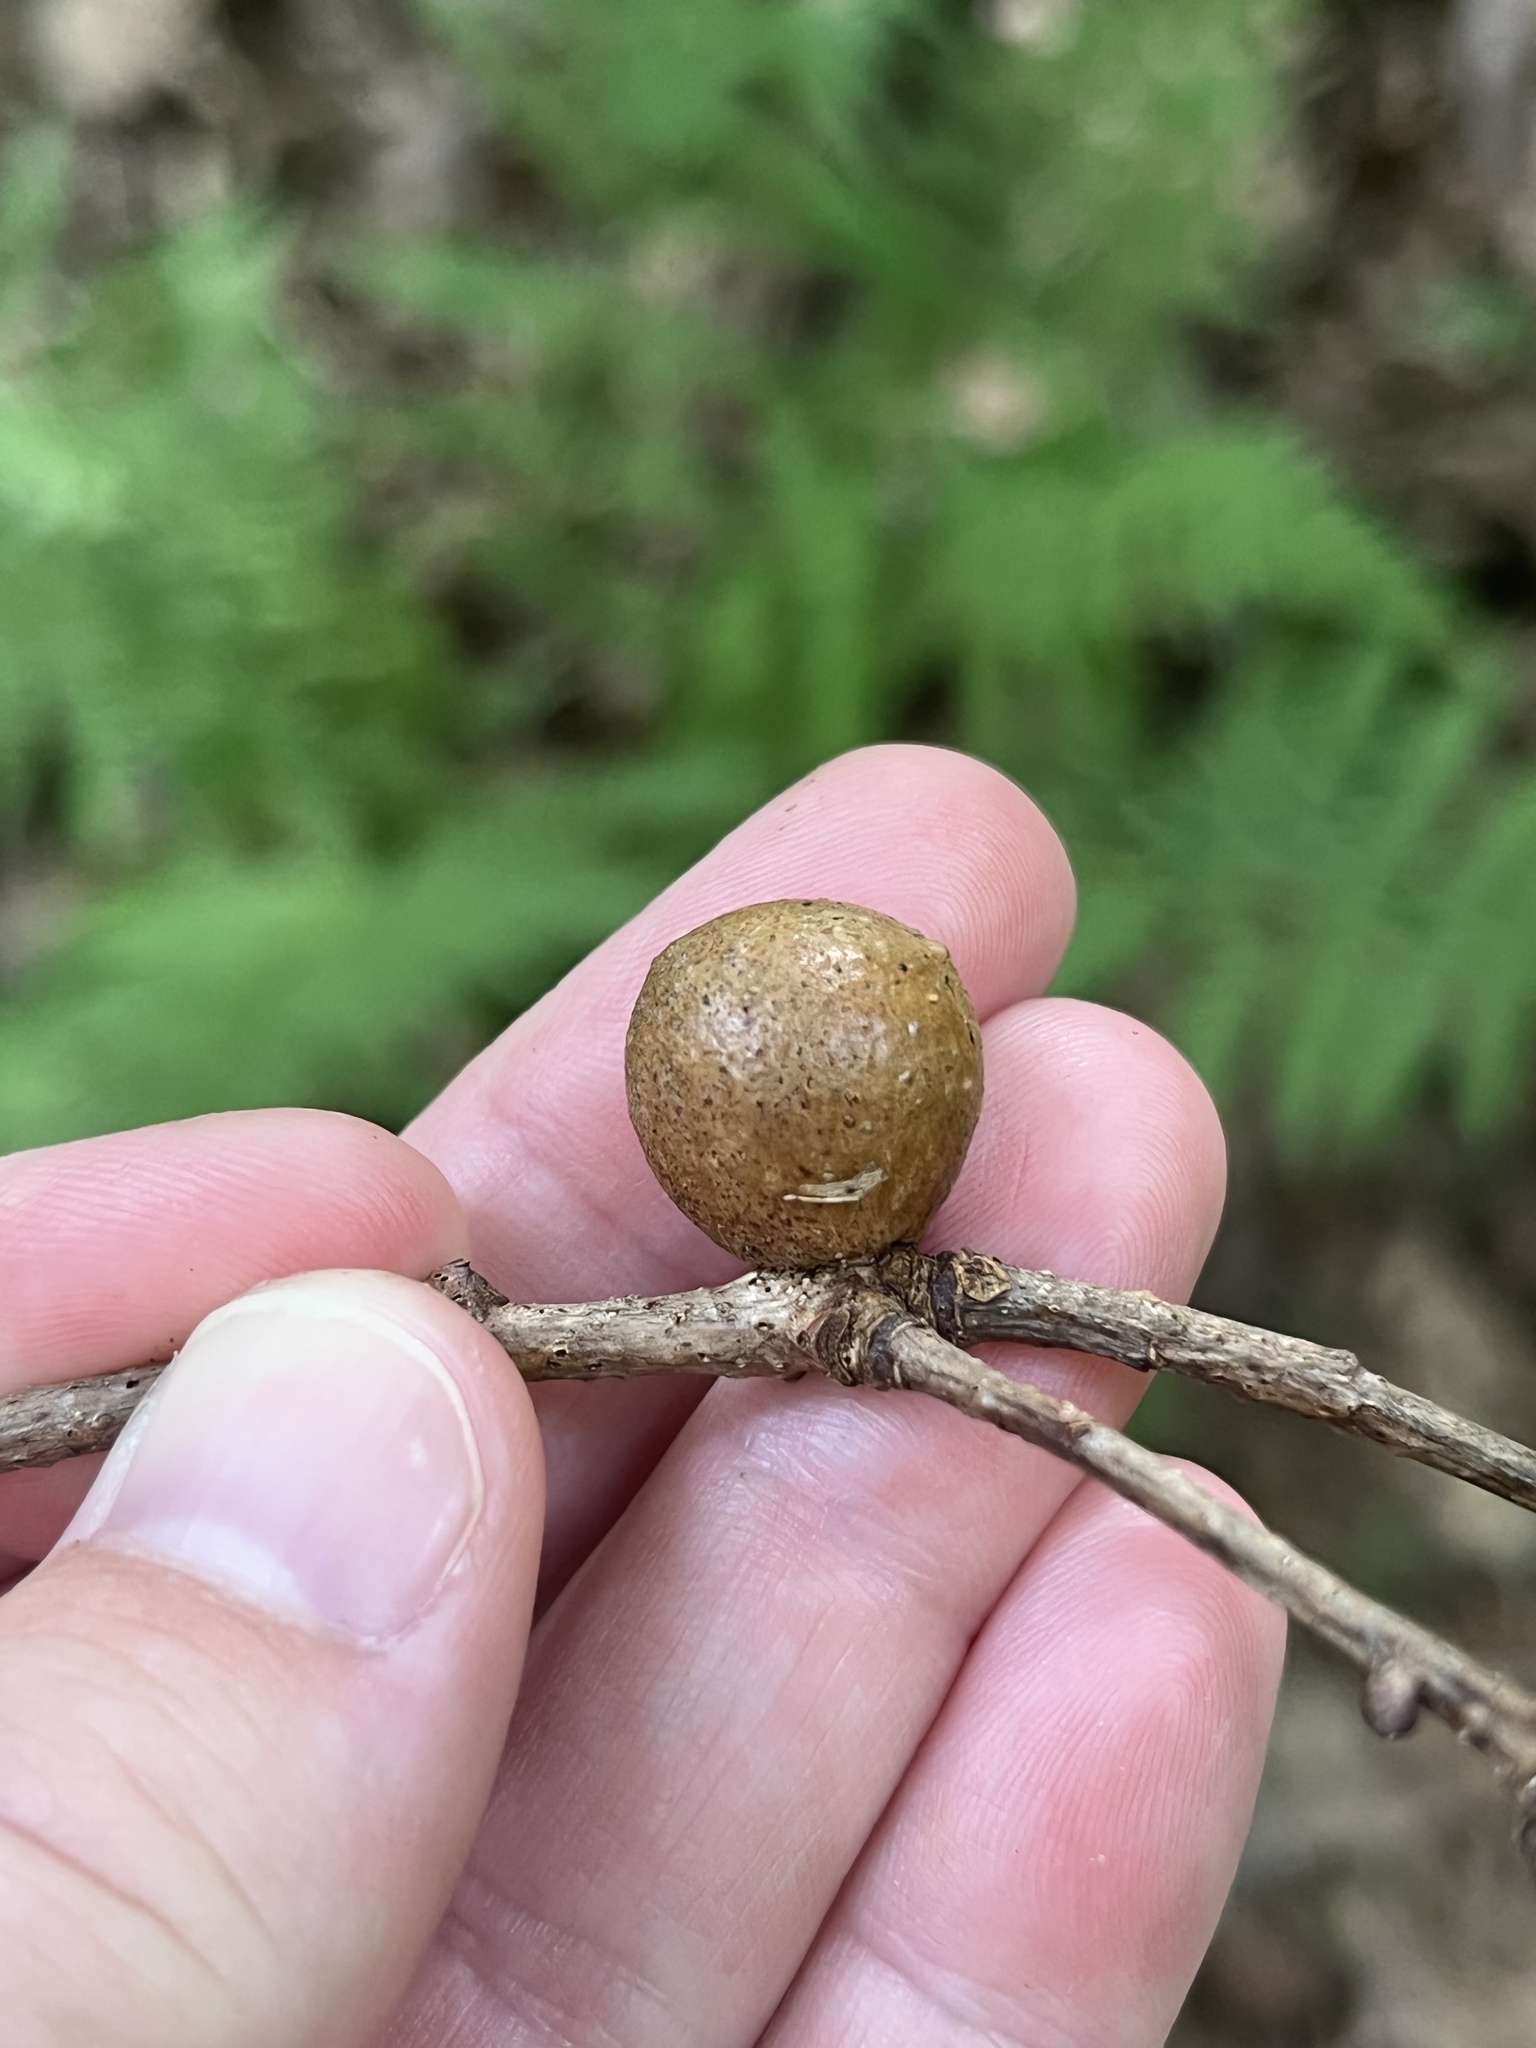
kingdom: Animalia
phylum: Arthropoda
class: Insecta
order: Hymenoptera
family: Cynipidae
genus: Disholcaspis
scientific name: Disholcaspis quercusglobulus
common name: Round bullet gall wasp
